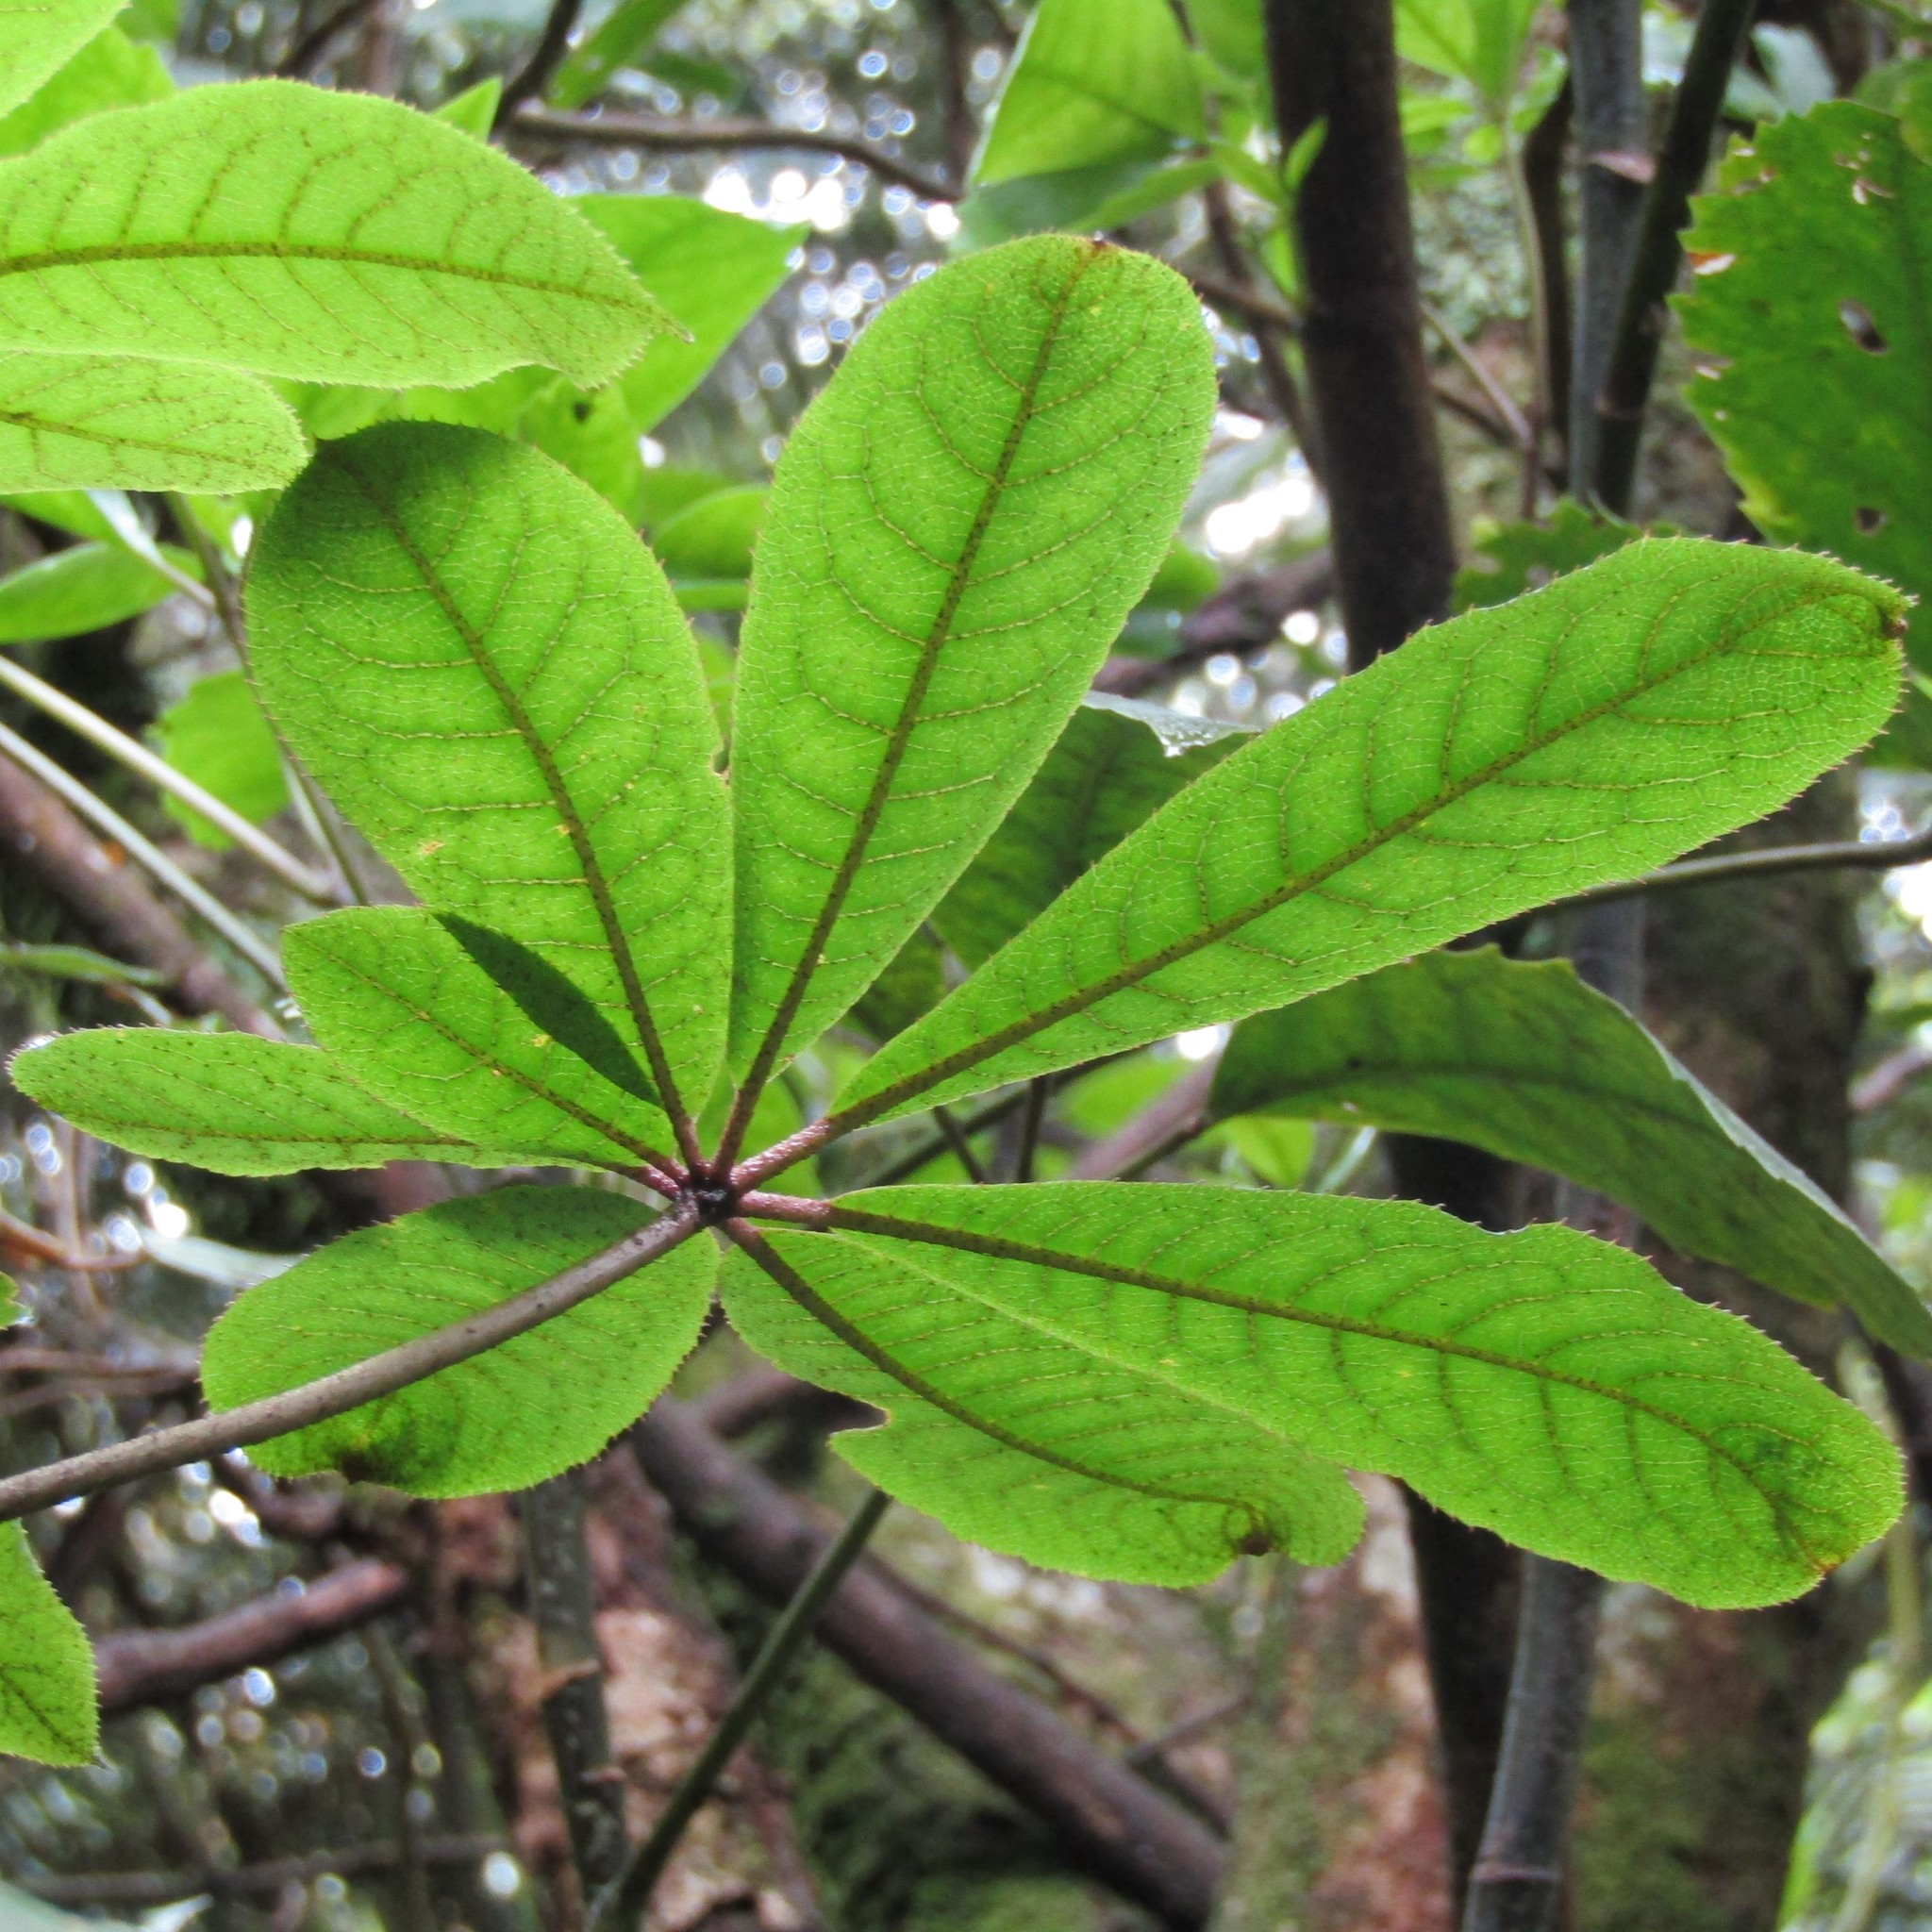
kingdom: Plantae
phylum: Tracheophyta
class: Magnoliopsida
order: Apiales
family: Araliaceae
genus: Schefflera
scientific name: Schefflera digitata
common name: Pate
